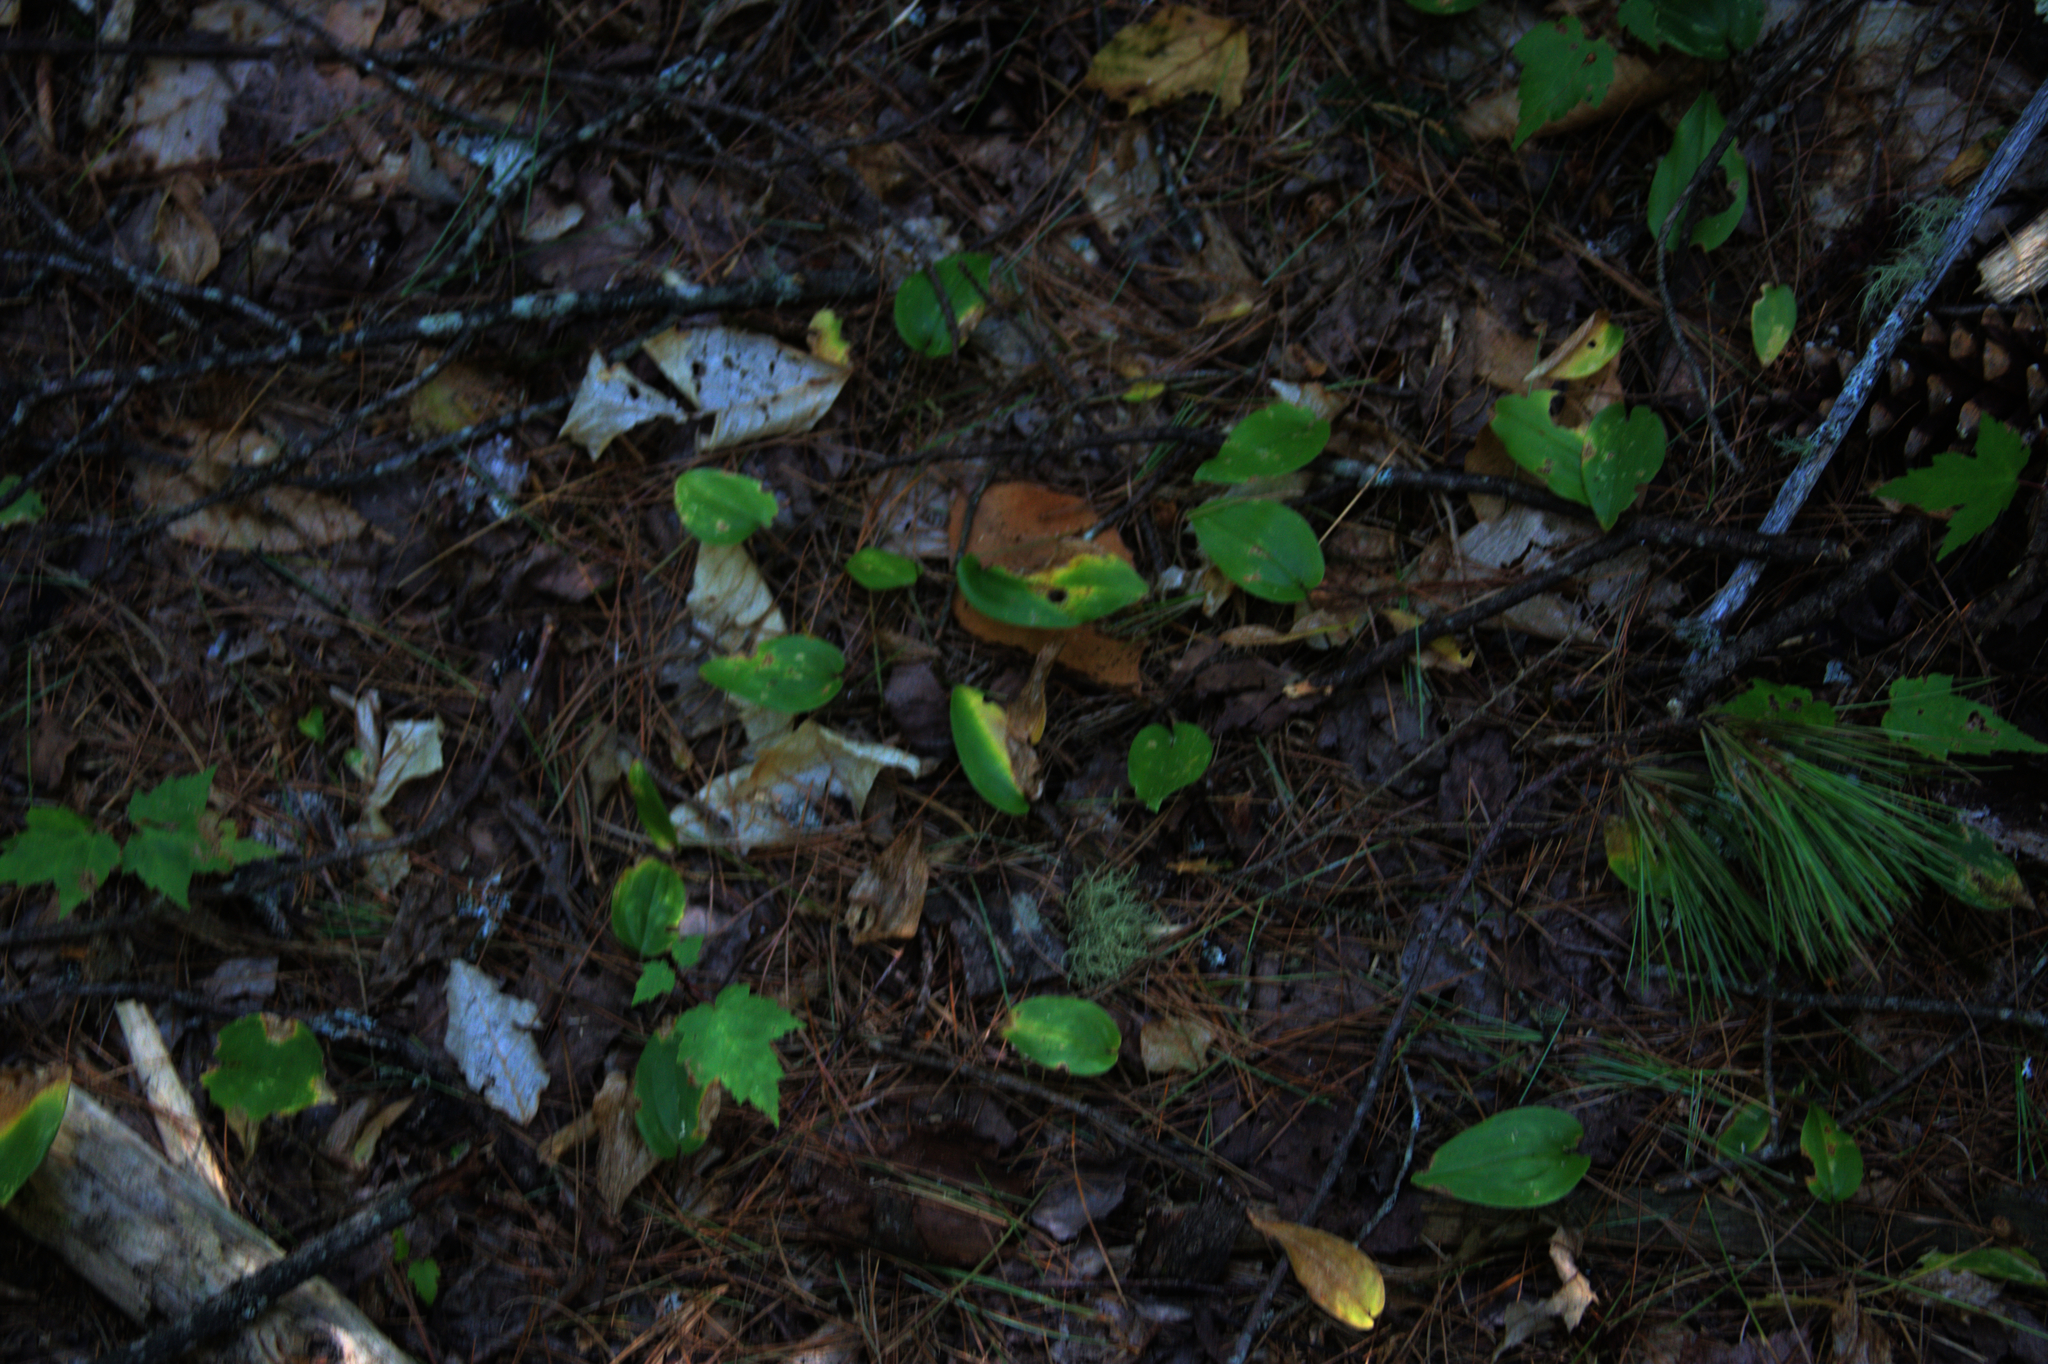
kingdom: Plantae
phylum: Tracheophyta
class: Liliopsida
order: Asparagales
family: Asparagaceae
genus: Maianthemum
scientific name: Maianthemum canadense
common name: False lily-of-the-valley
